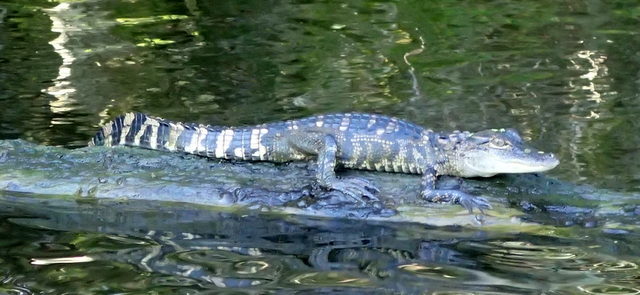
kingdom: Animalia
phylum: Chordata
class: Crocodylia
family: Alligatoridae
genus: Alligator
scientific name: Alligator mississippiensis
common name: American alligator
